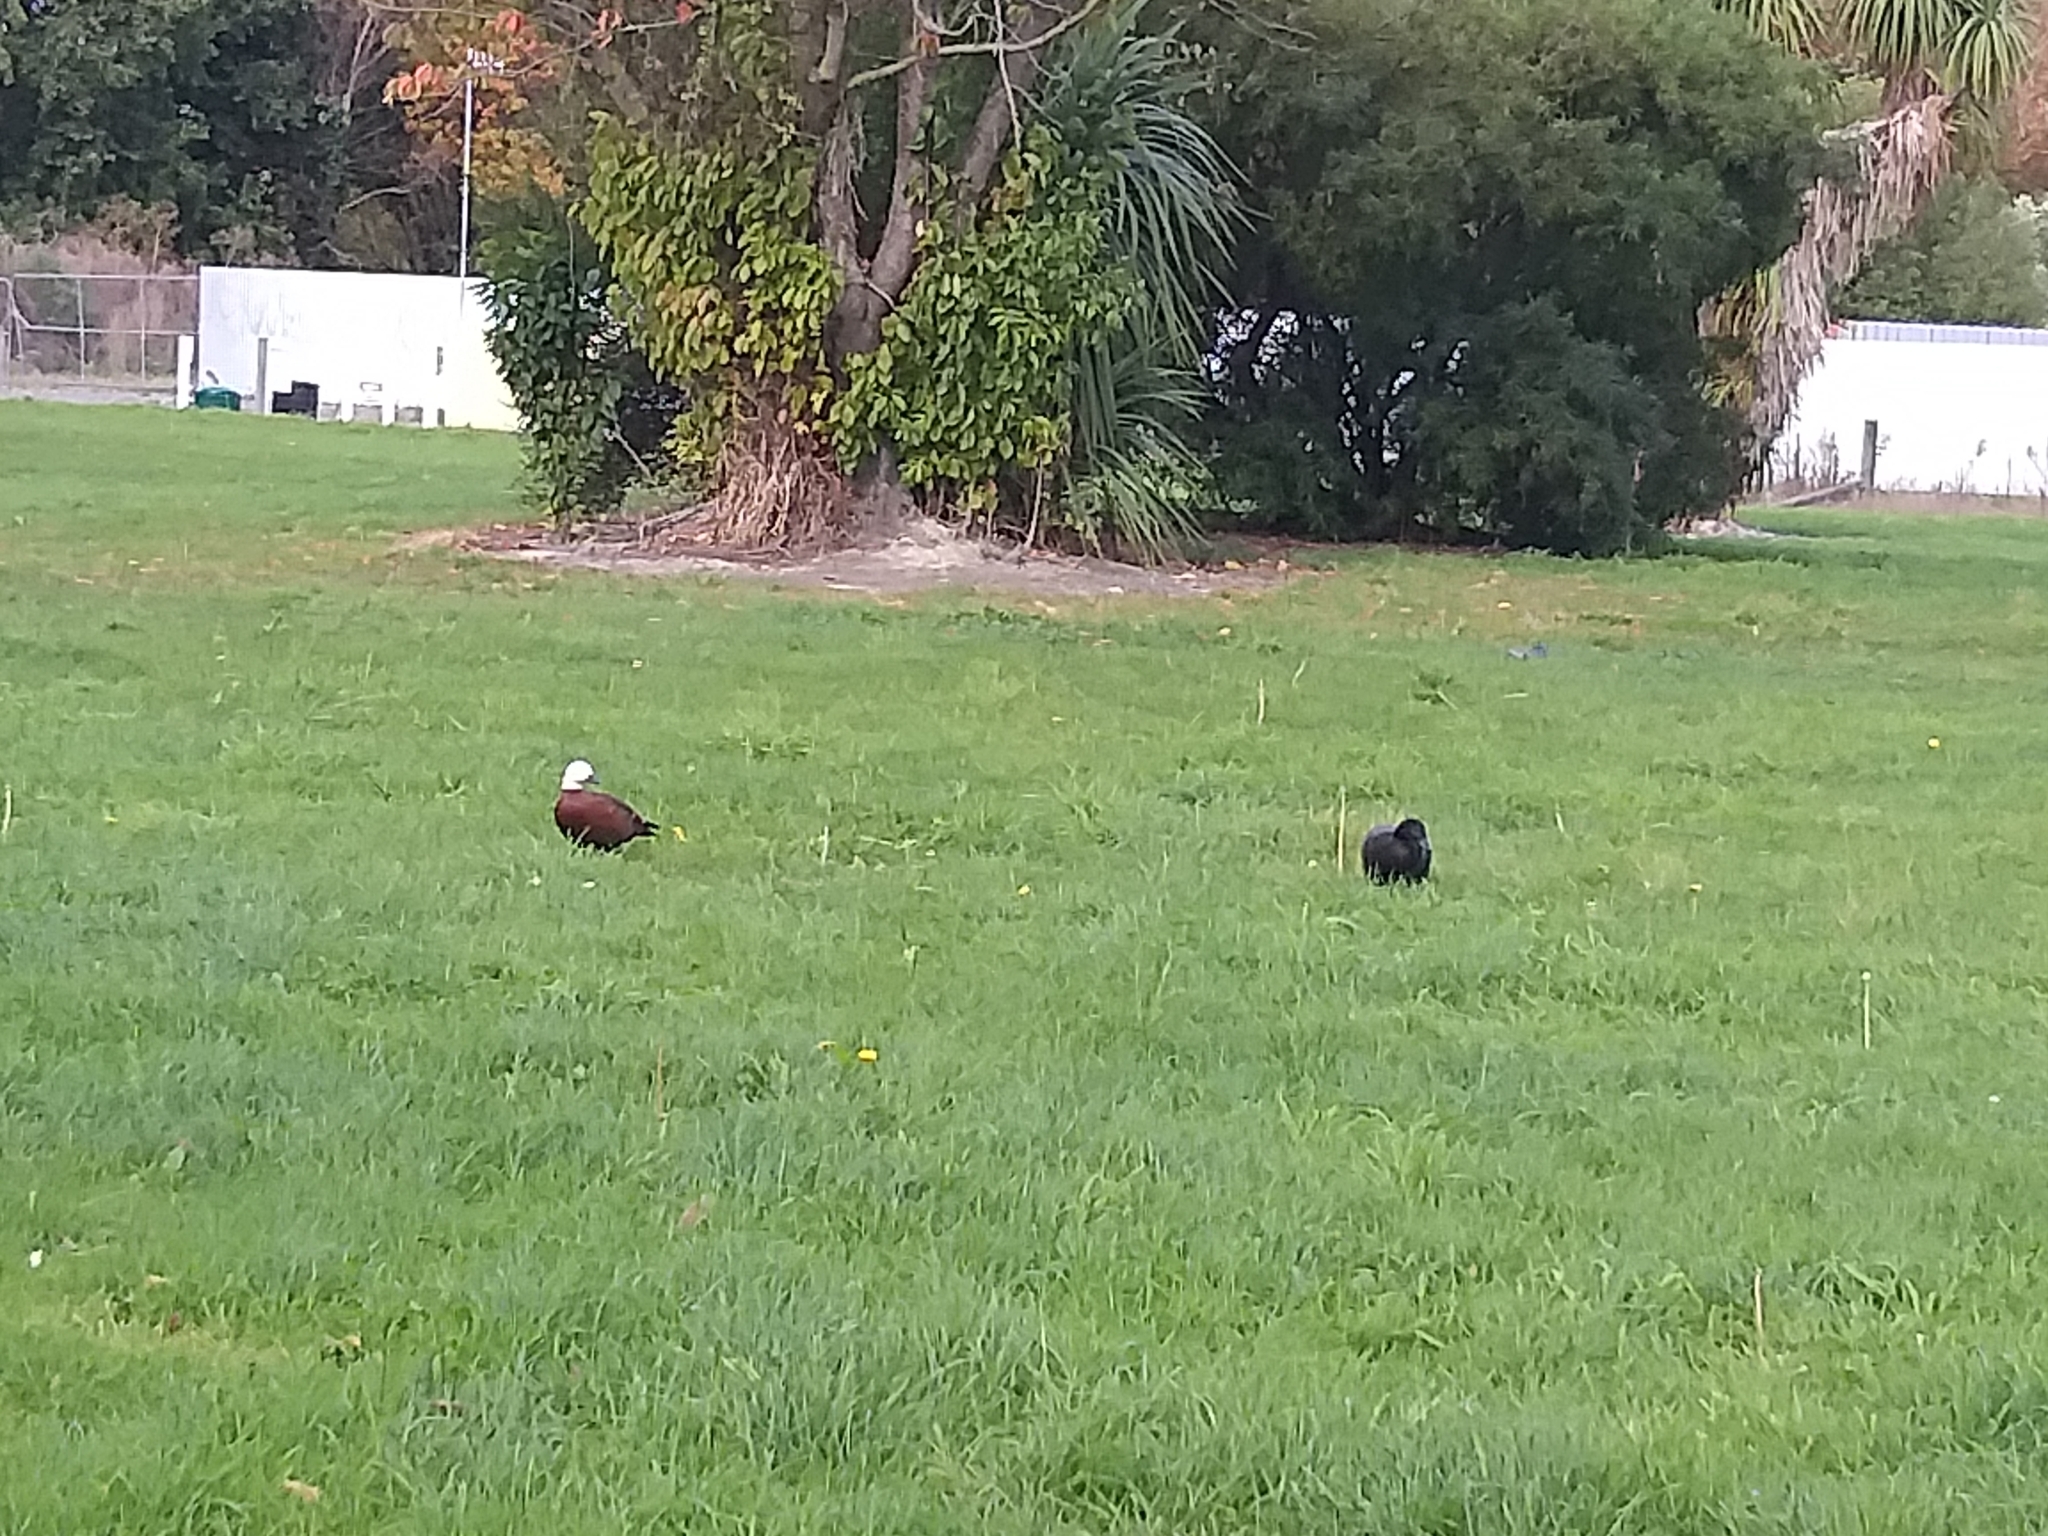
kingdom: Animalia
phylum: Chordata
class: Aves
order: Anseriformes
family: Anatidae
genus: Tadorna
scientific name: Tadorna variegata
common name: Paradise shelduck
